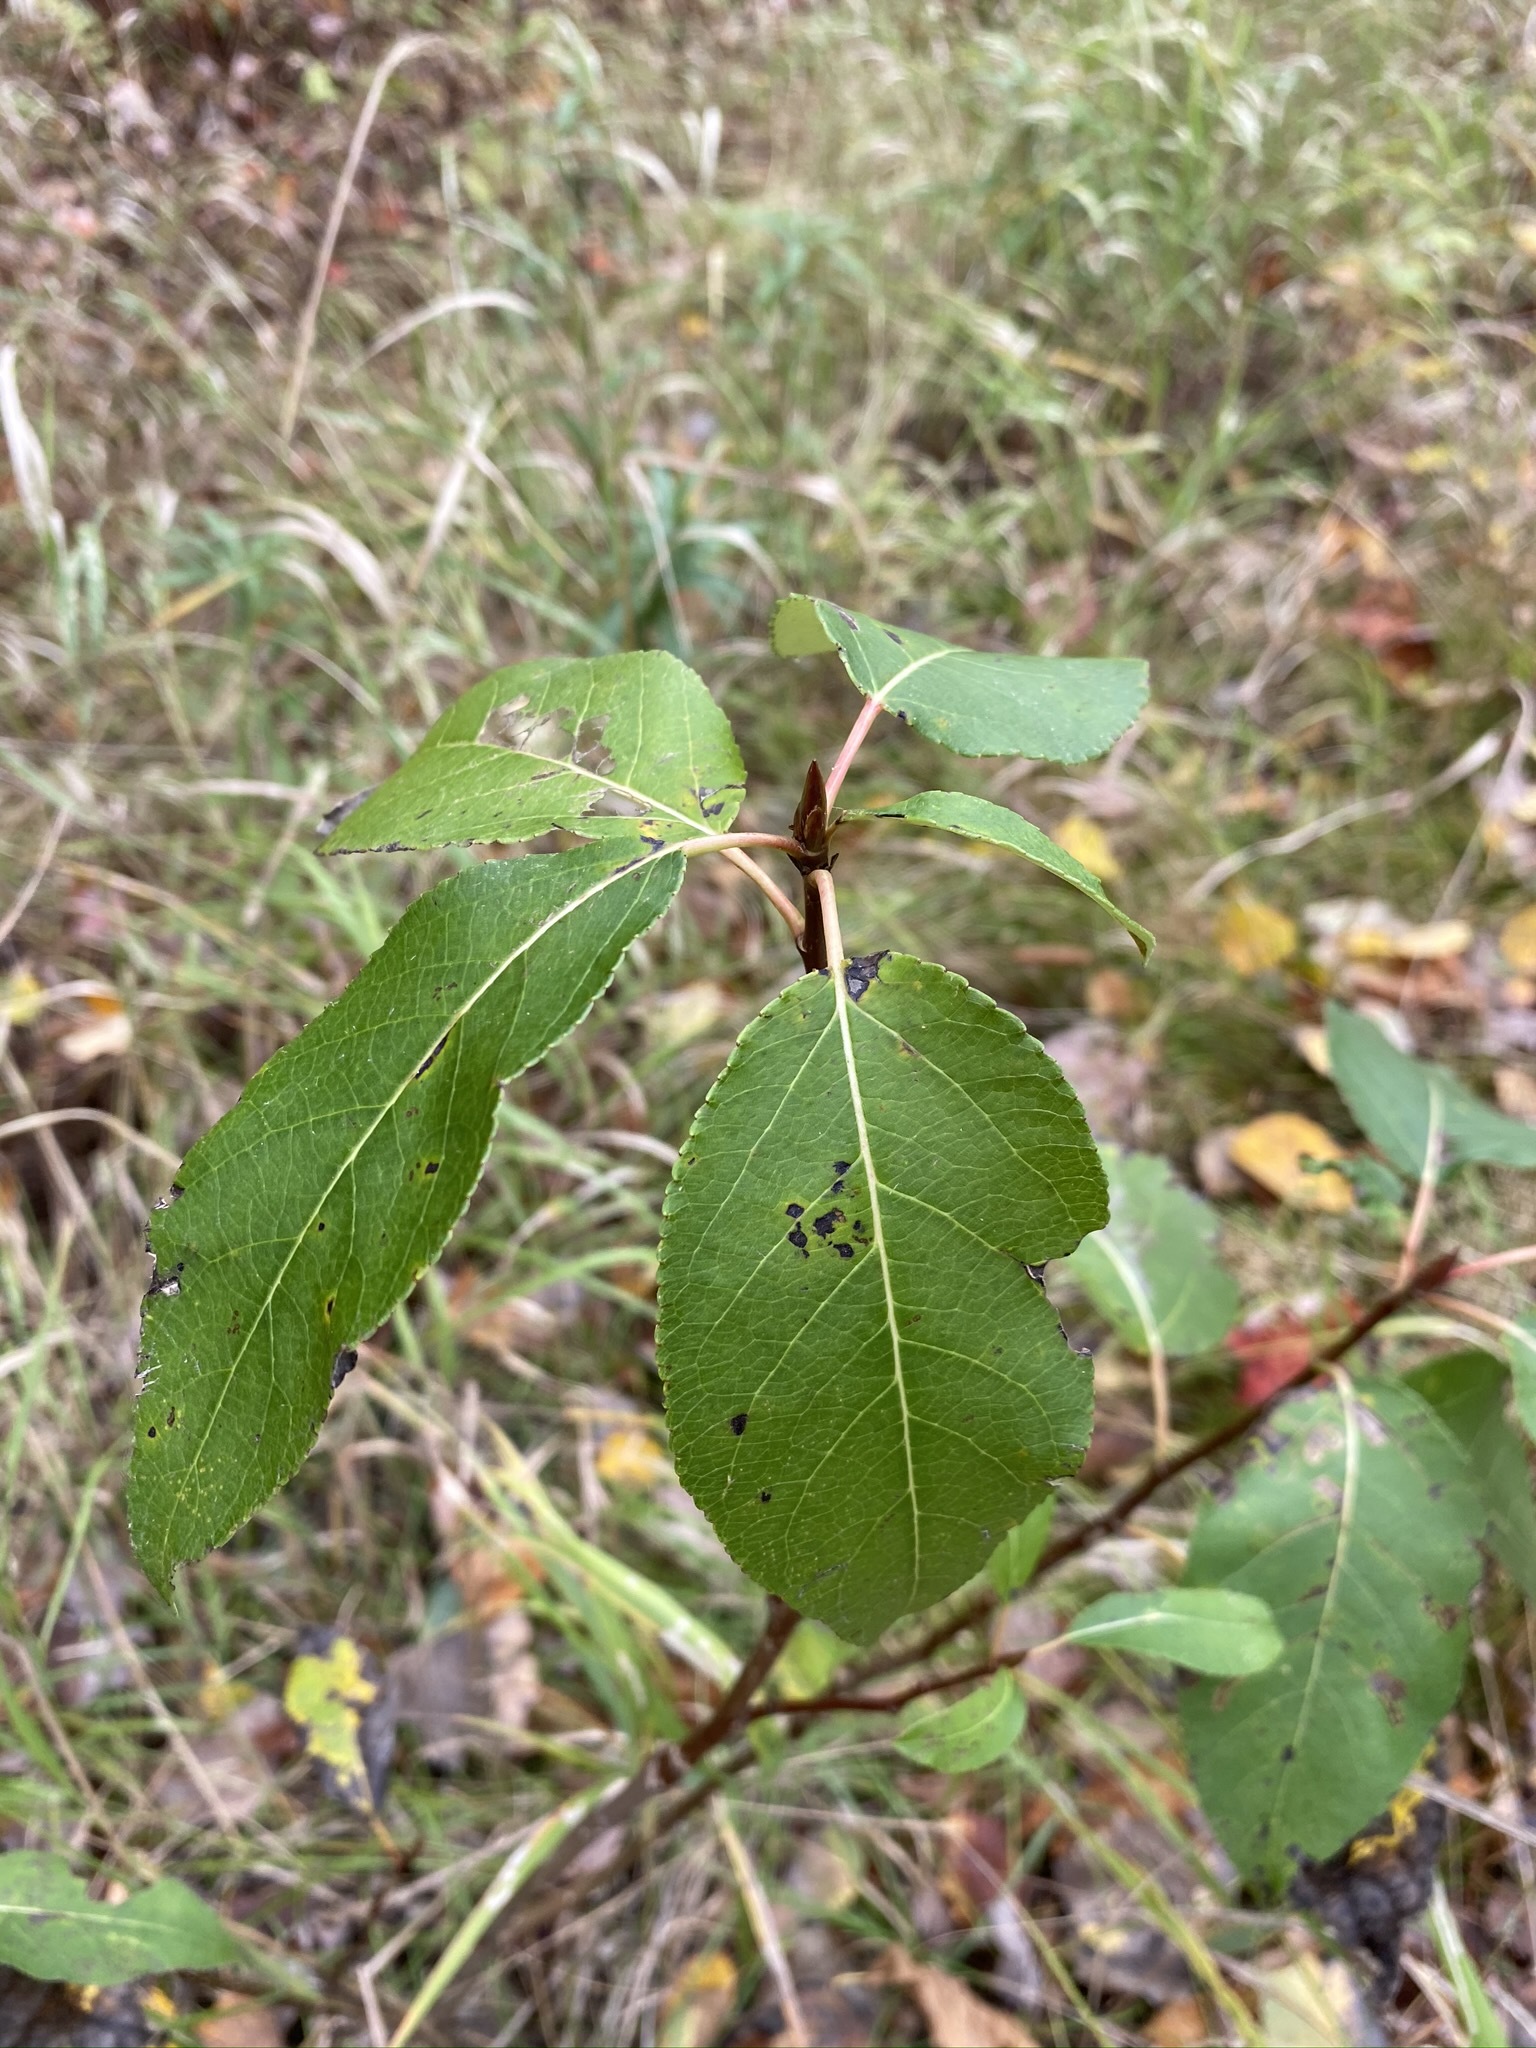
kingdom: Plantae
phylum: Tracheophyta
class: Magnoliopsida
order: Malpighiales
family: Salicaceae
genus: Populus
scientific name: Populus balsamifera
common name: Balsam poplar
